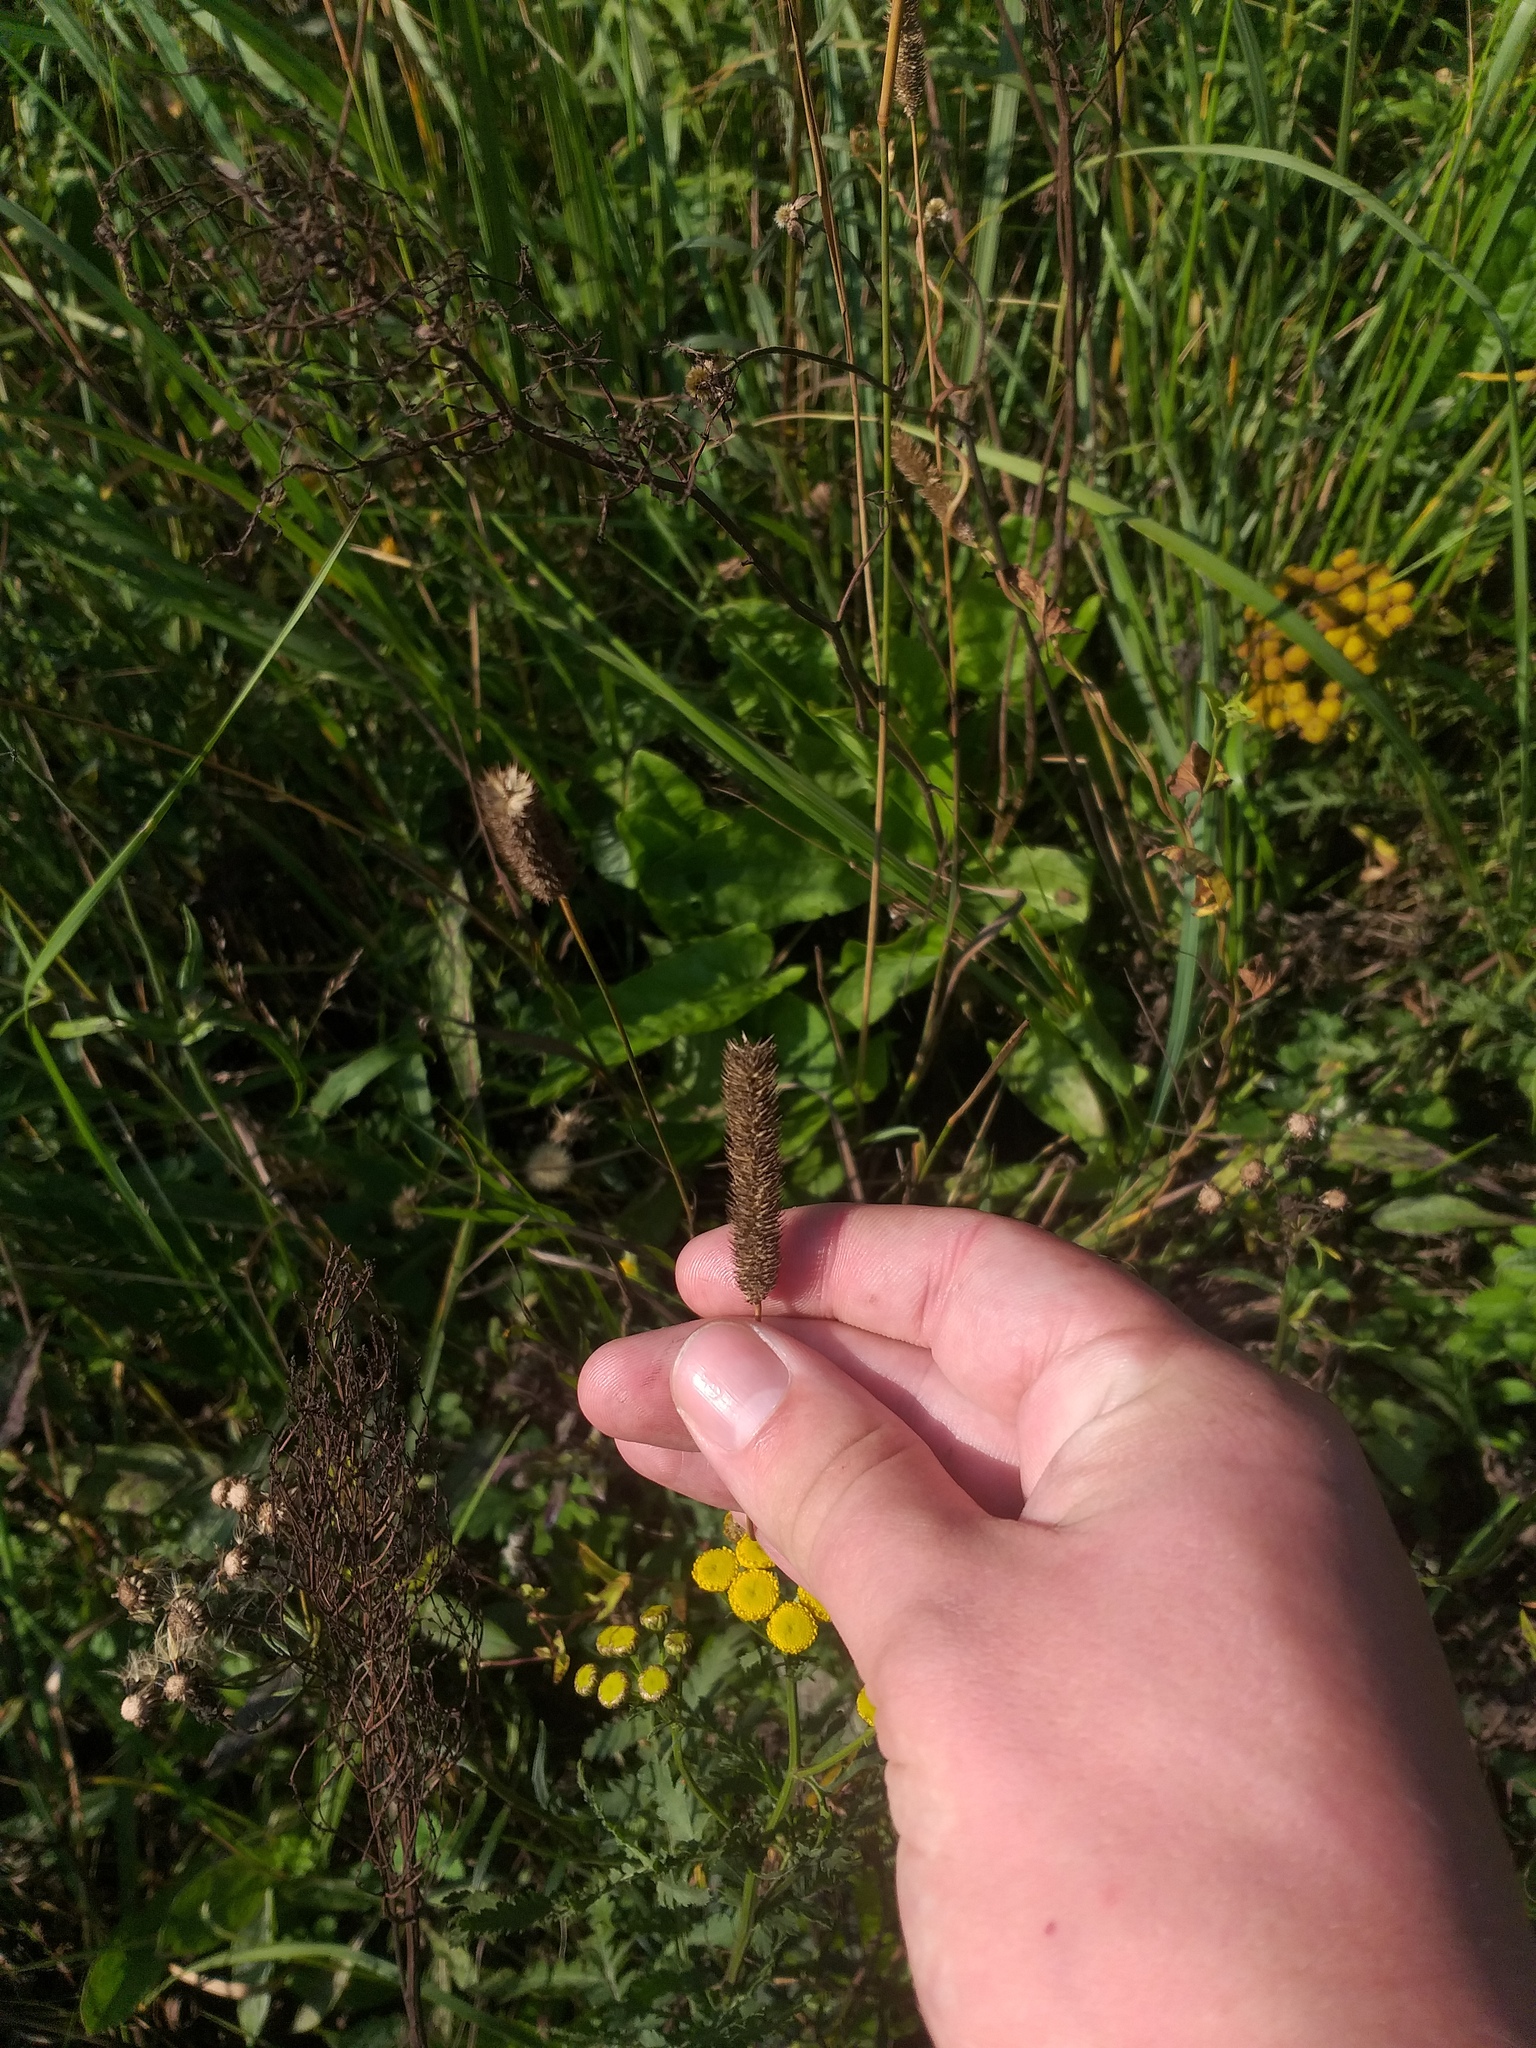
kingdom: Plantae
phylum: Tracheophyta
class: Liliopsida
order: Poales
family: Poaceae
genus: Phleum
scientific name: Phleum pratense
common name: Timothy grass
